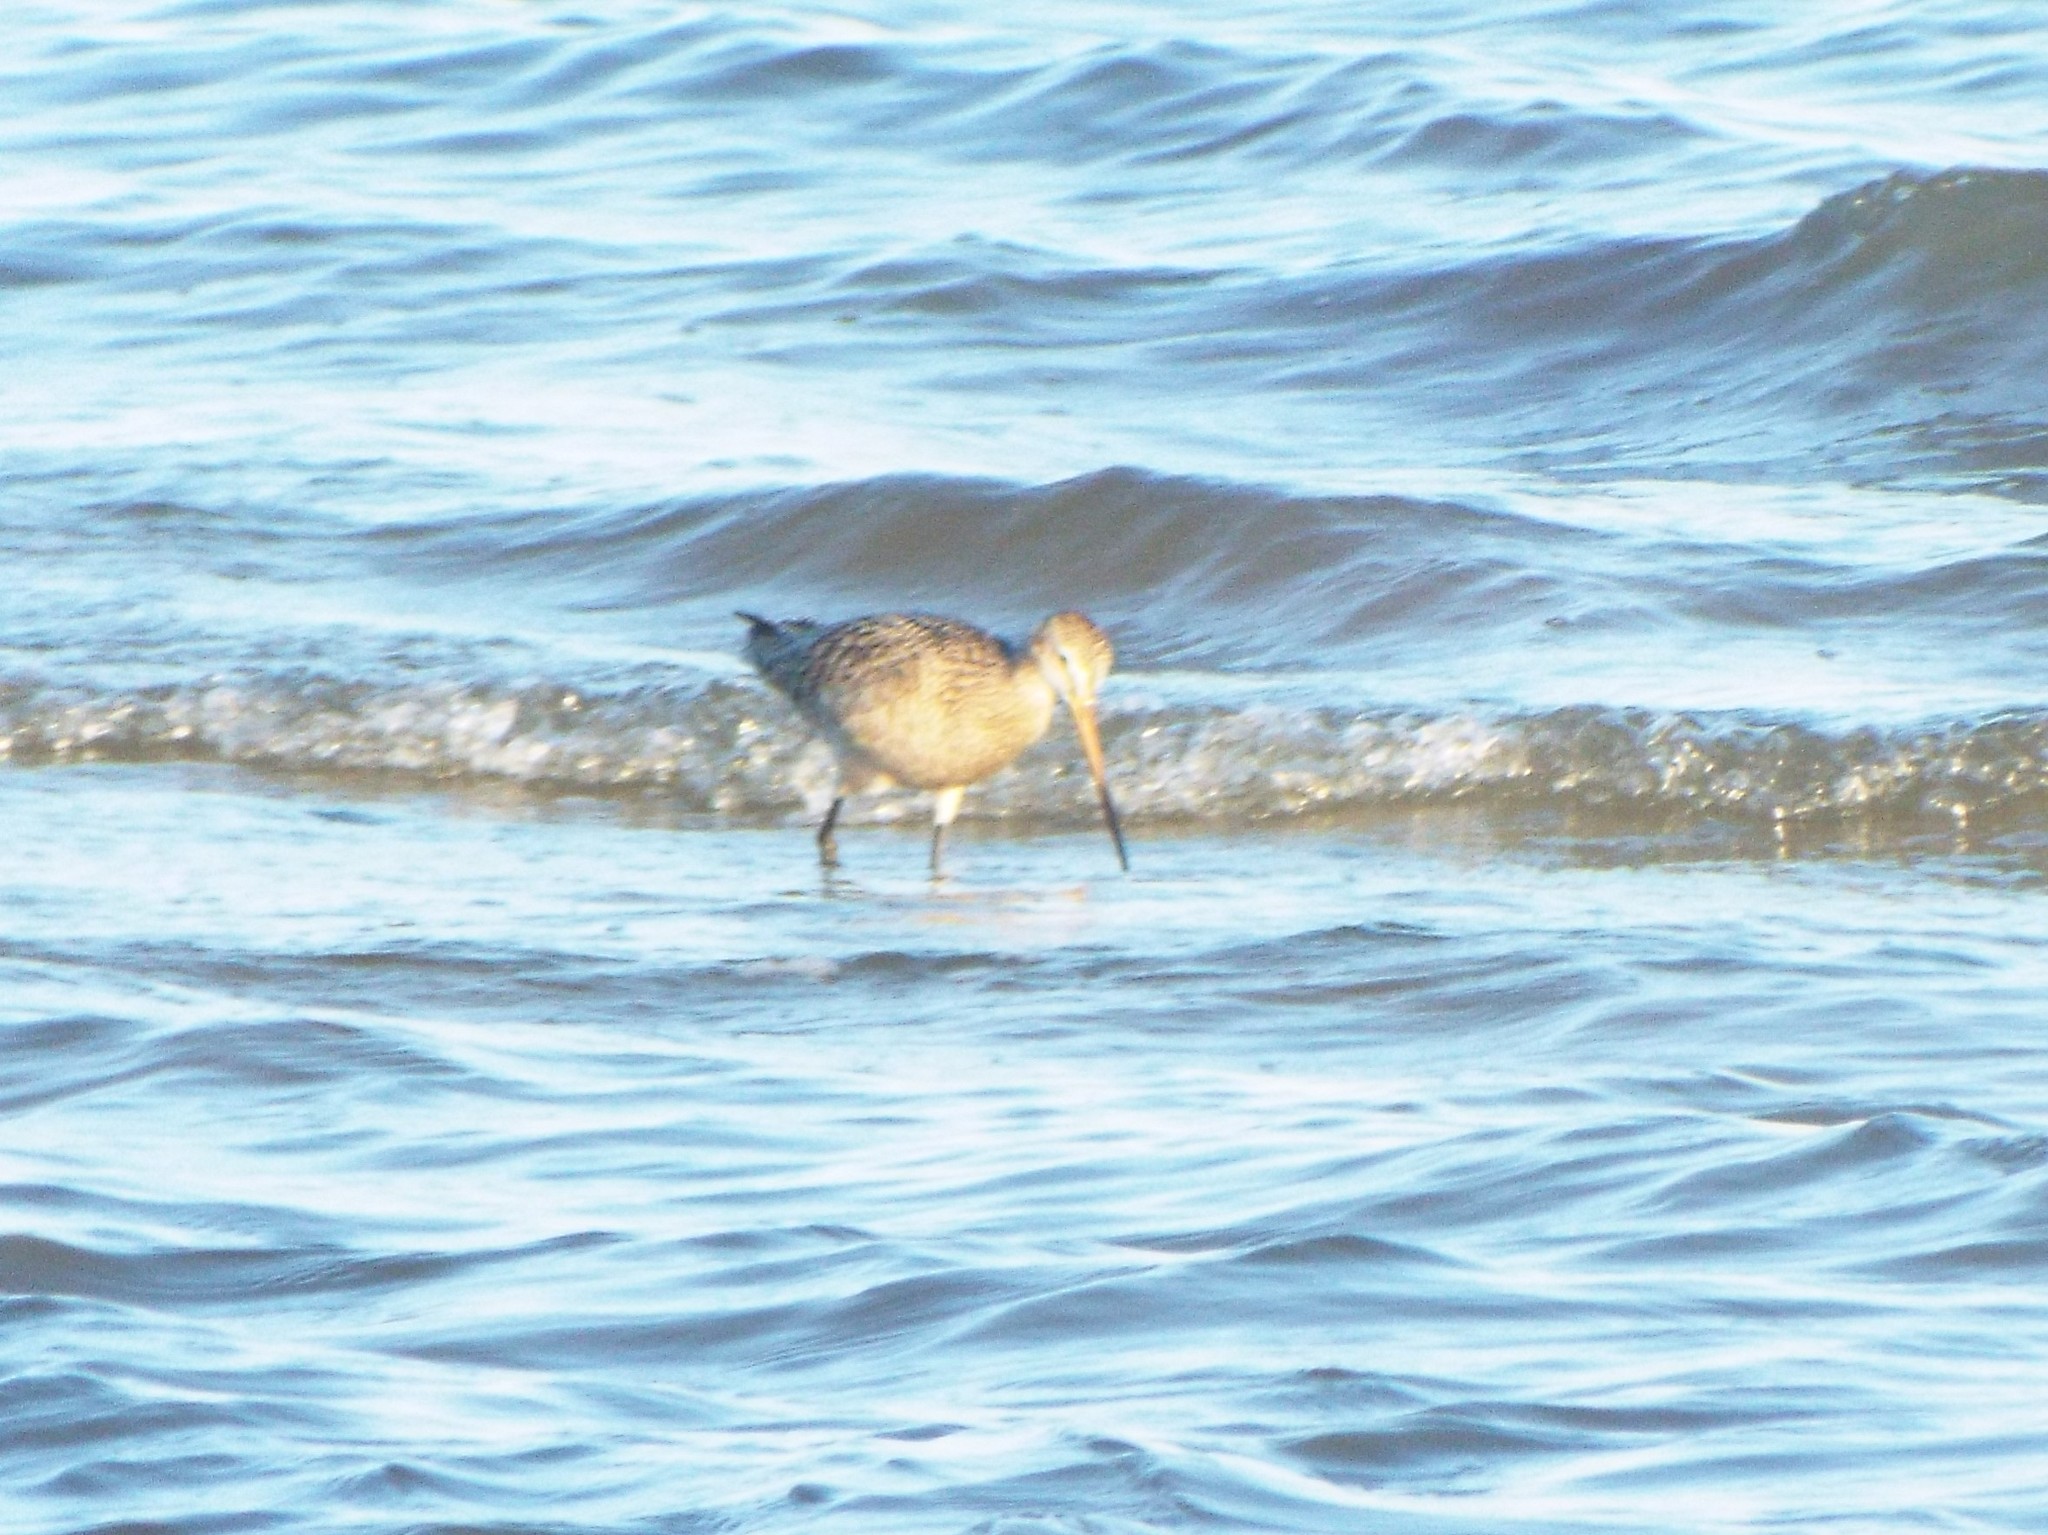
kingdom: Animalia
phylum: Chordata
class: Aves
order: Charadriiformes
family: Scolopacidae
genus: Limosa
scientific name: Limosa fedoa
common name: Marbled godwit
